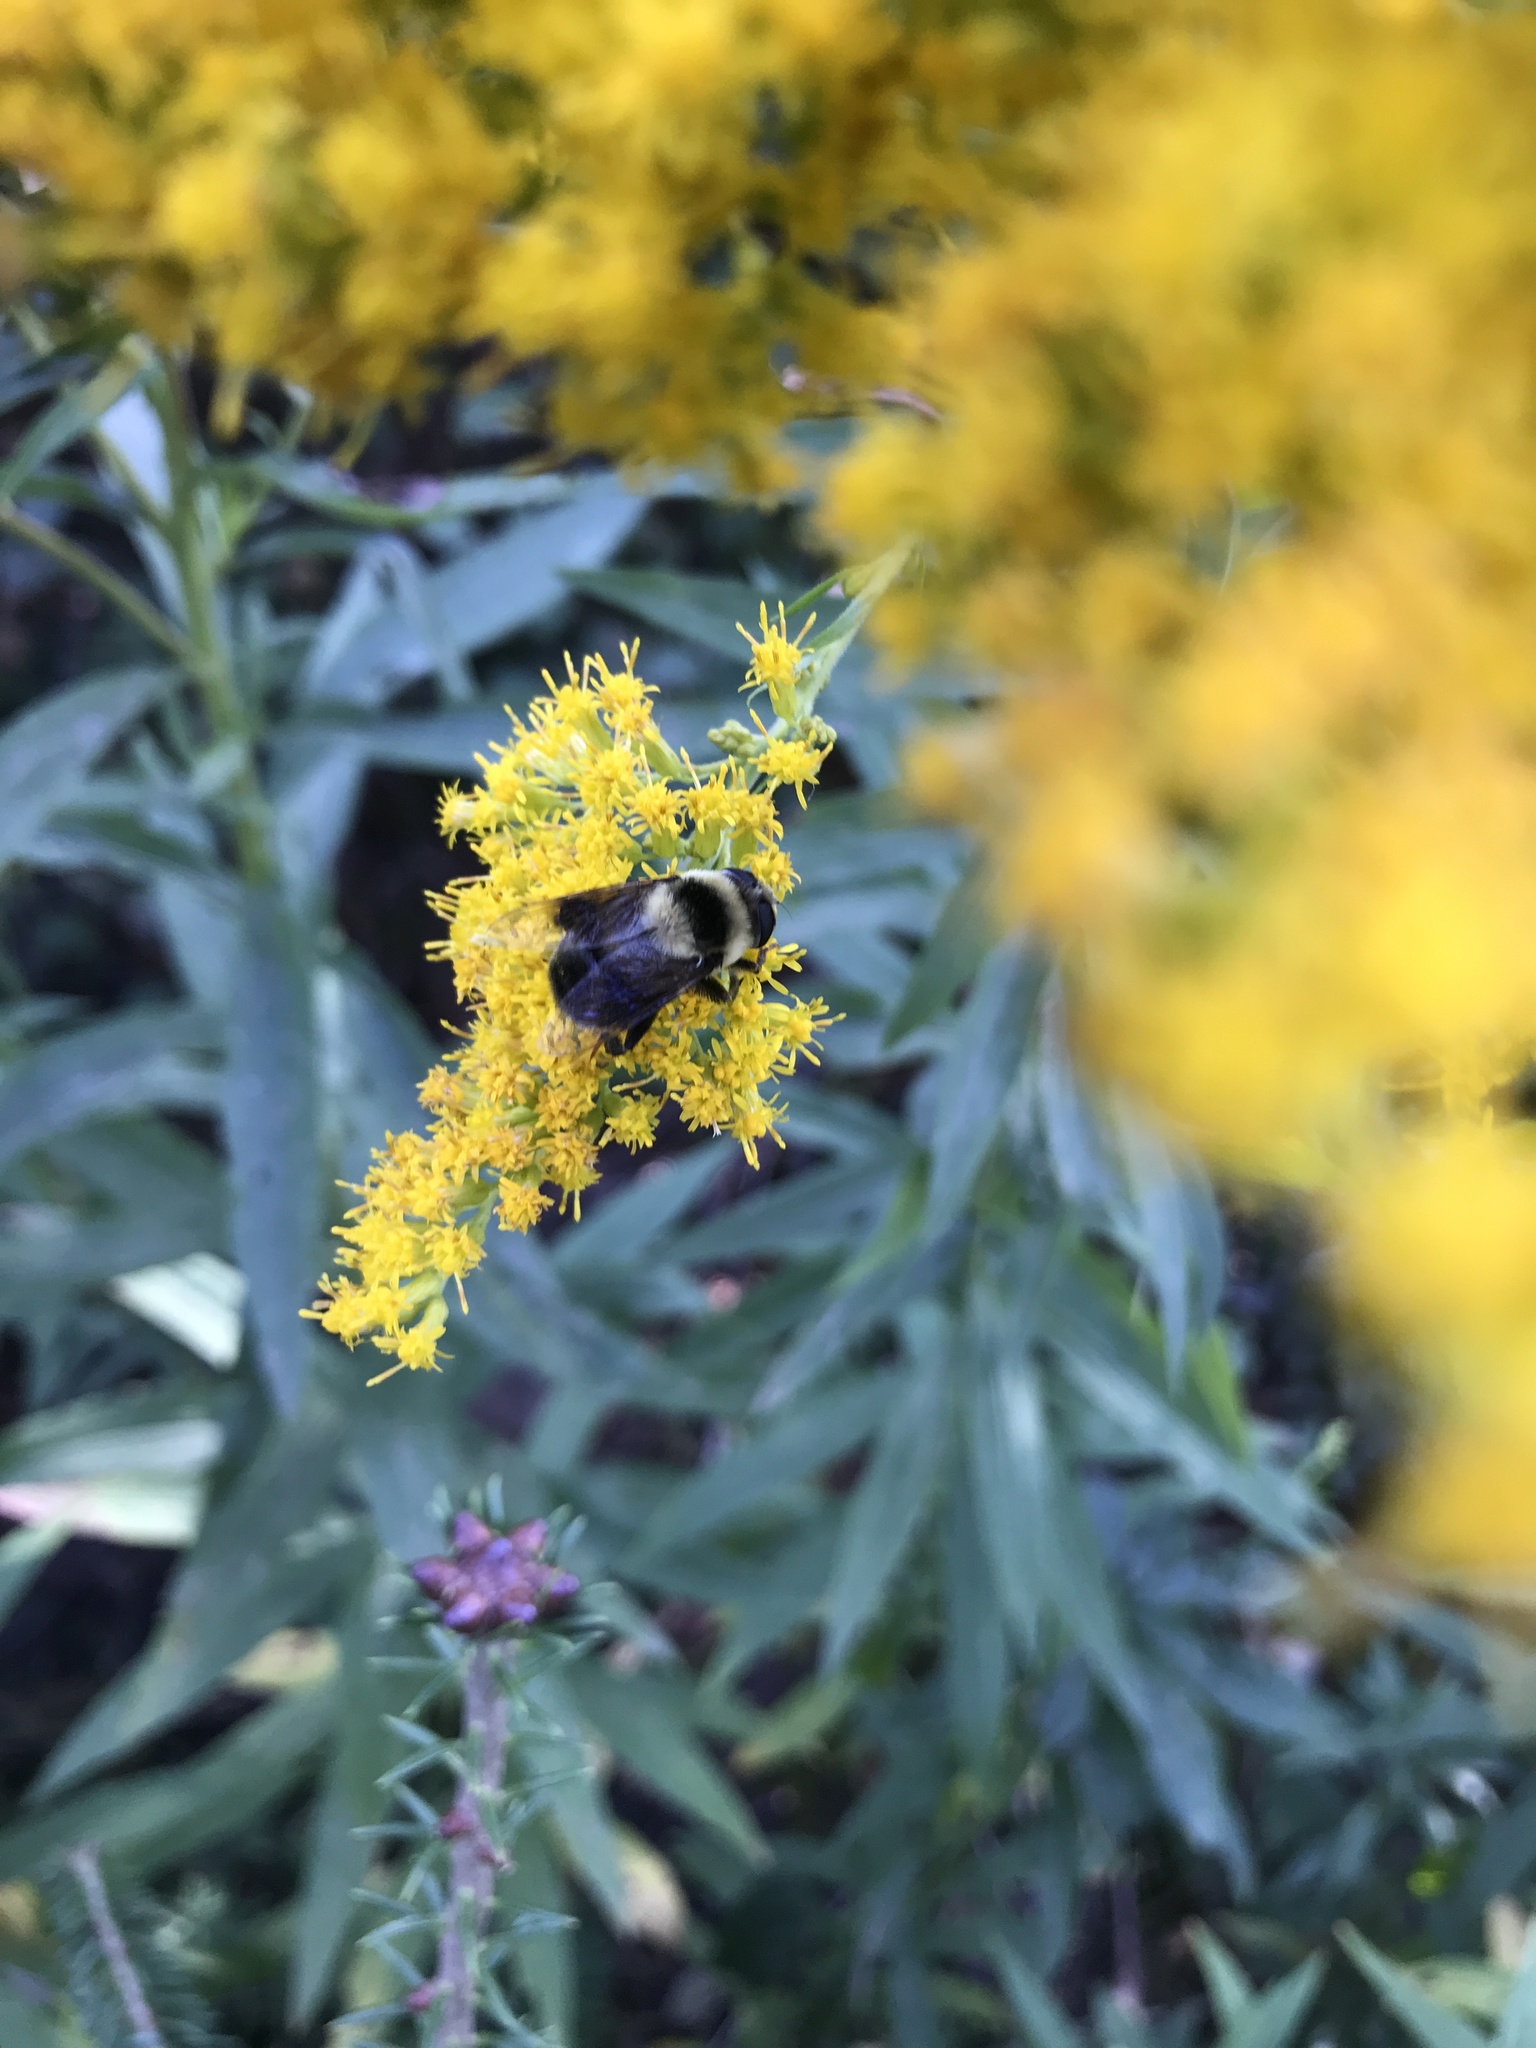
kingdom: Animalia
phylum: Arthropoda
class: Insecta
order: Diptera
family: Syrphidae
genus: Eristalis
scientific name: Eristalis flavipes
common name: Orange-legged drone fly
